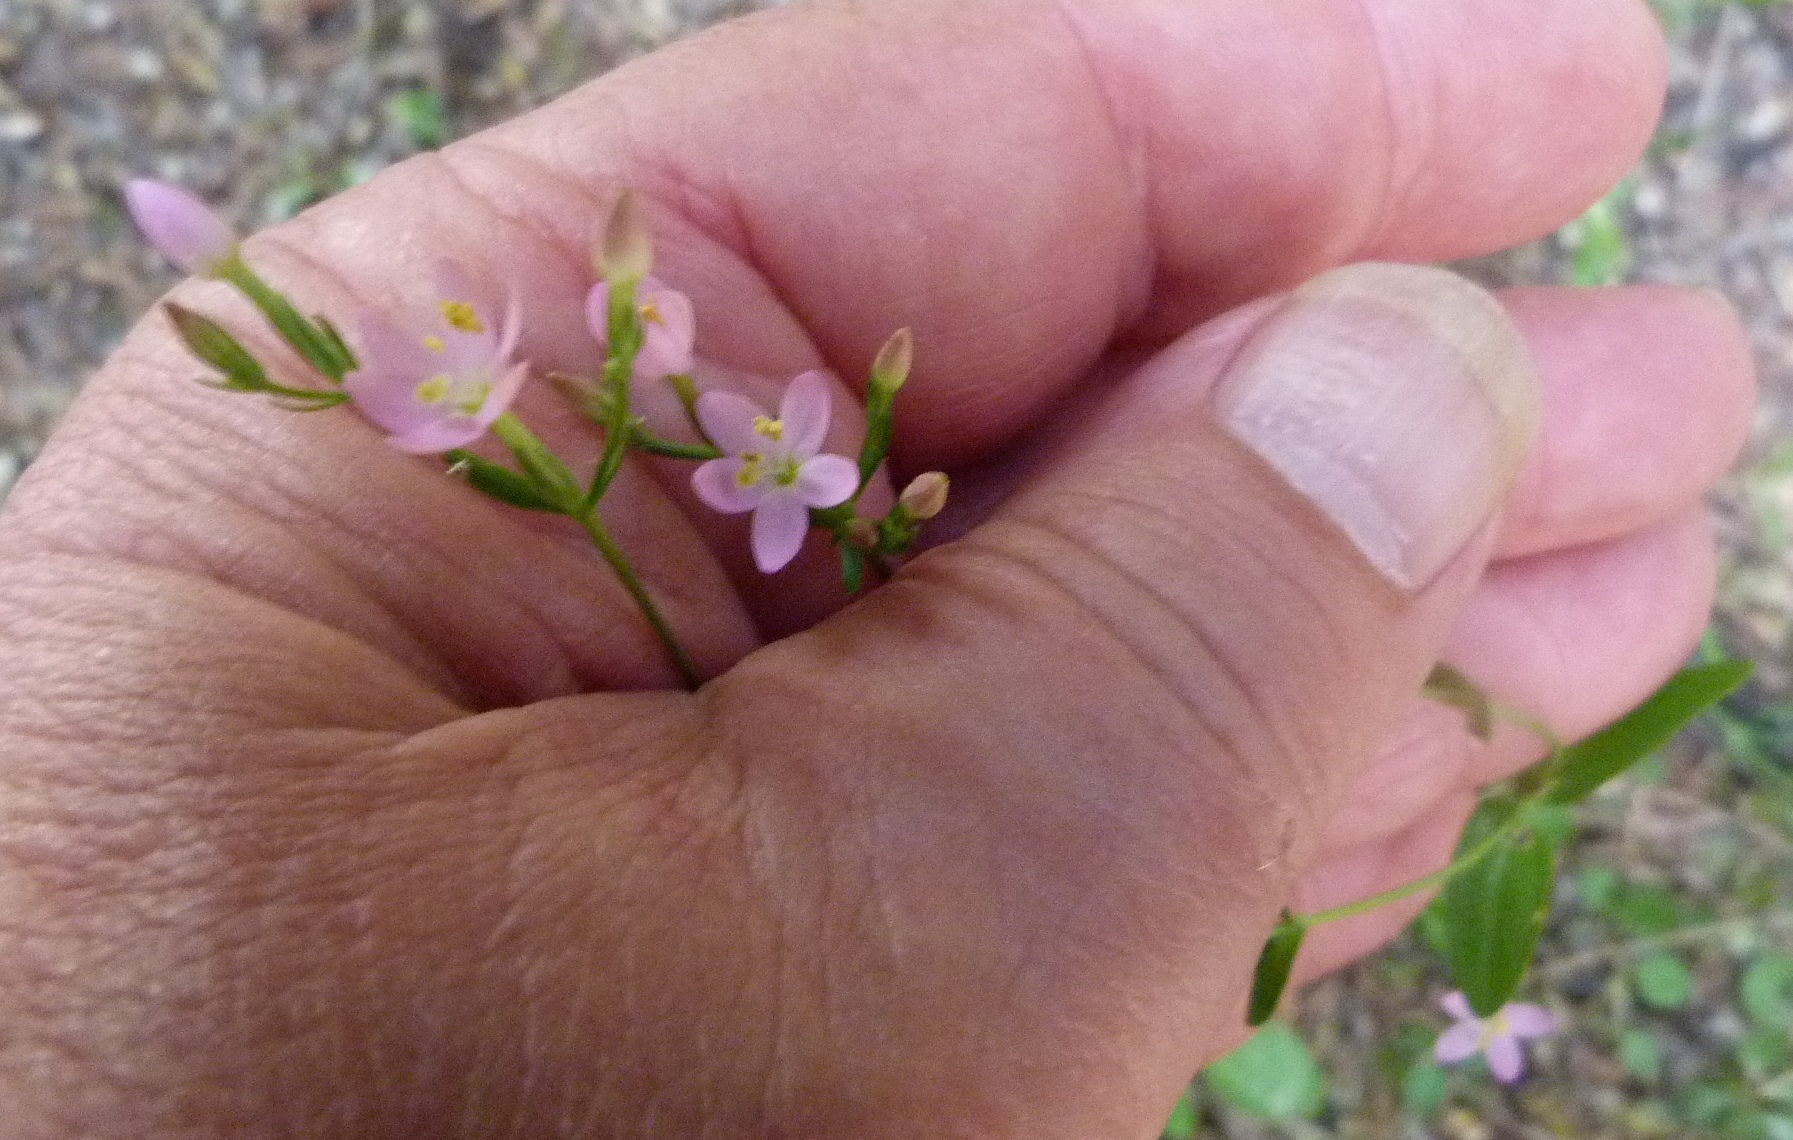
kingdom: Plantae
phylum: Tracheophyta
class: Magnoliopsida
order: Gentianales
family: Gentianaceae
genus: Centaurium
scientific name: Centaurium erythraea
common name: Common centaury
